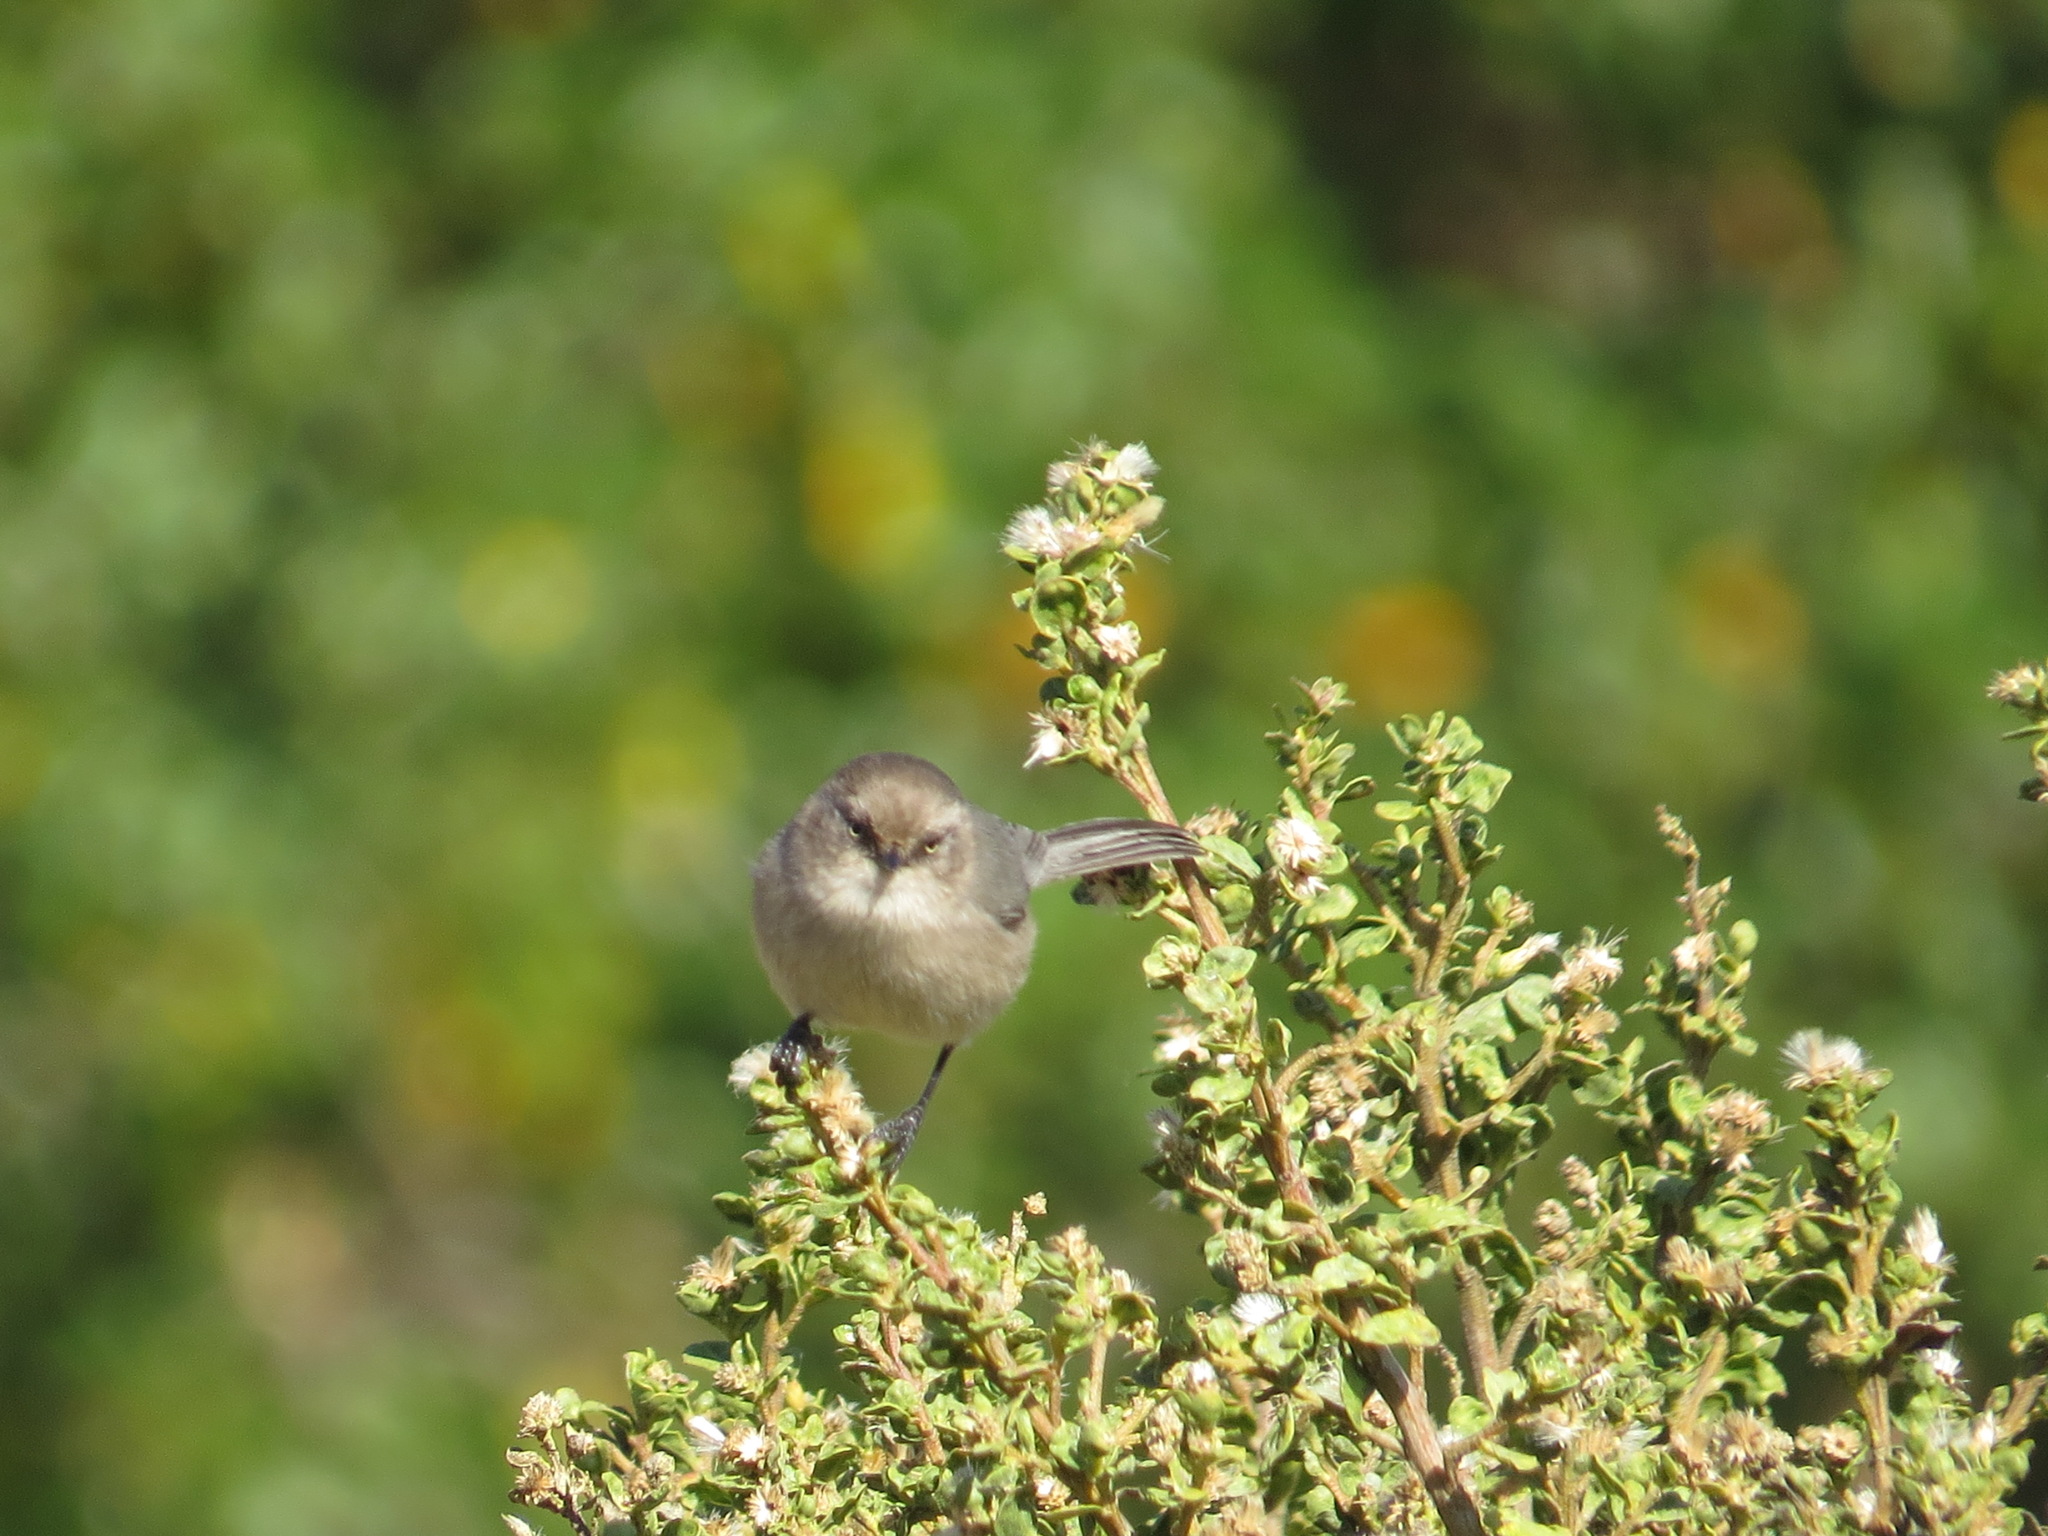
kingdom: Animalia
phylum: Chordata
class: Aves
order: Passeriformes
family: Aegithalidae
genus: Psaltriparus
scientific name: Psaltriparus minimus
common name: American bushtit
